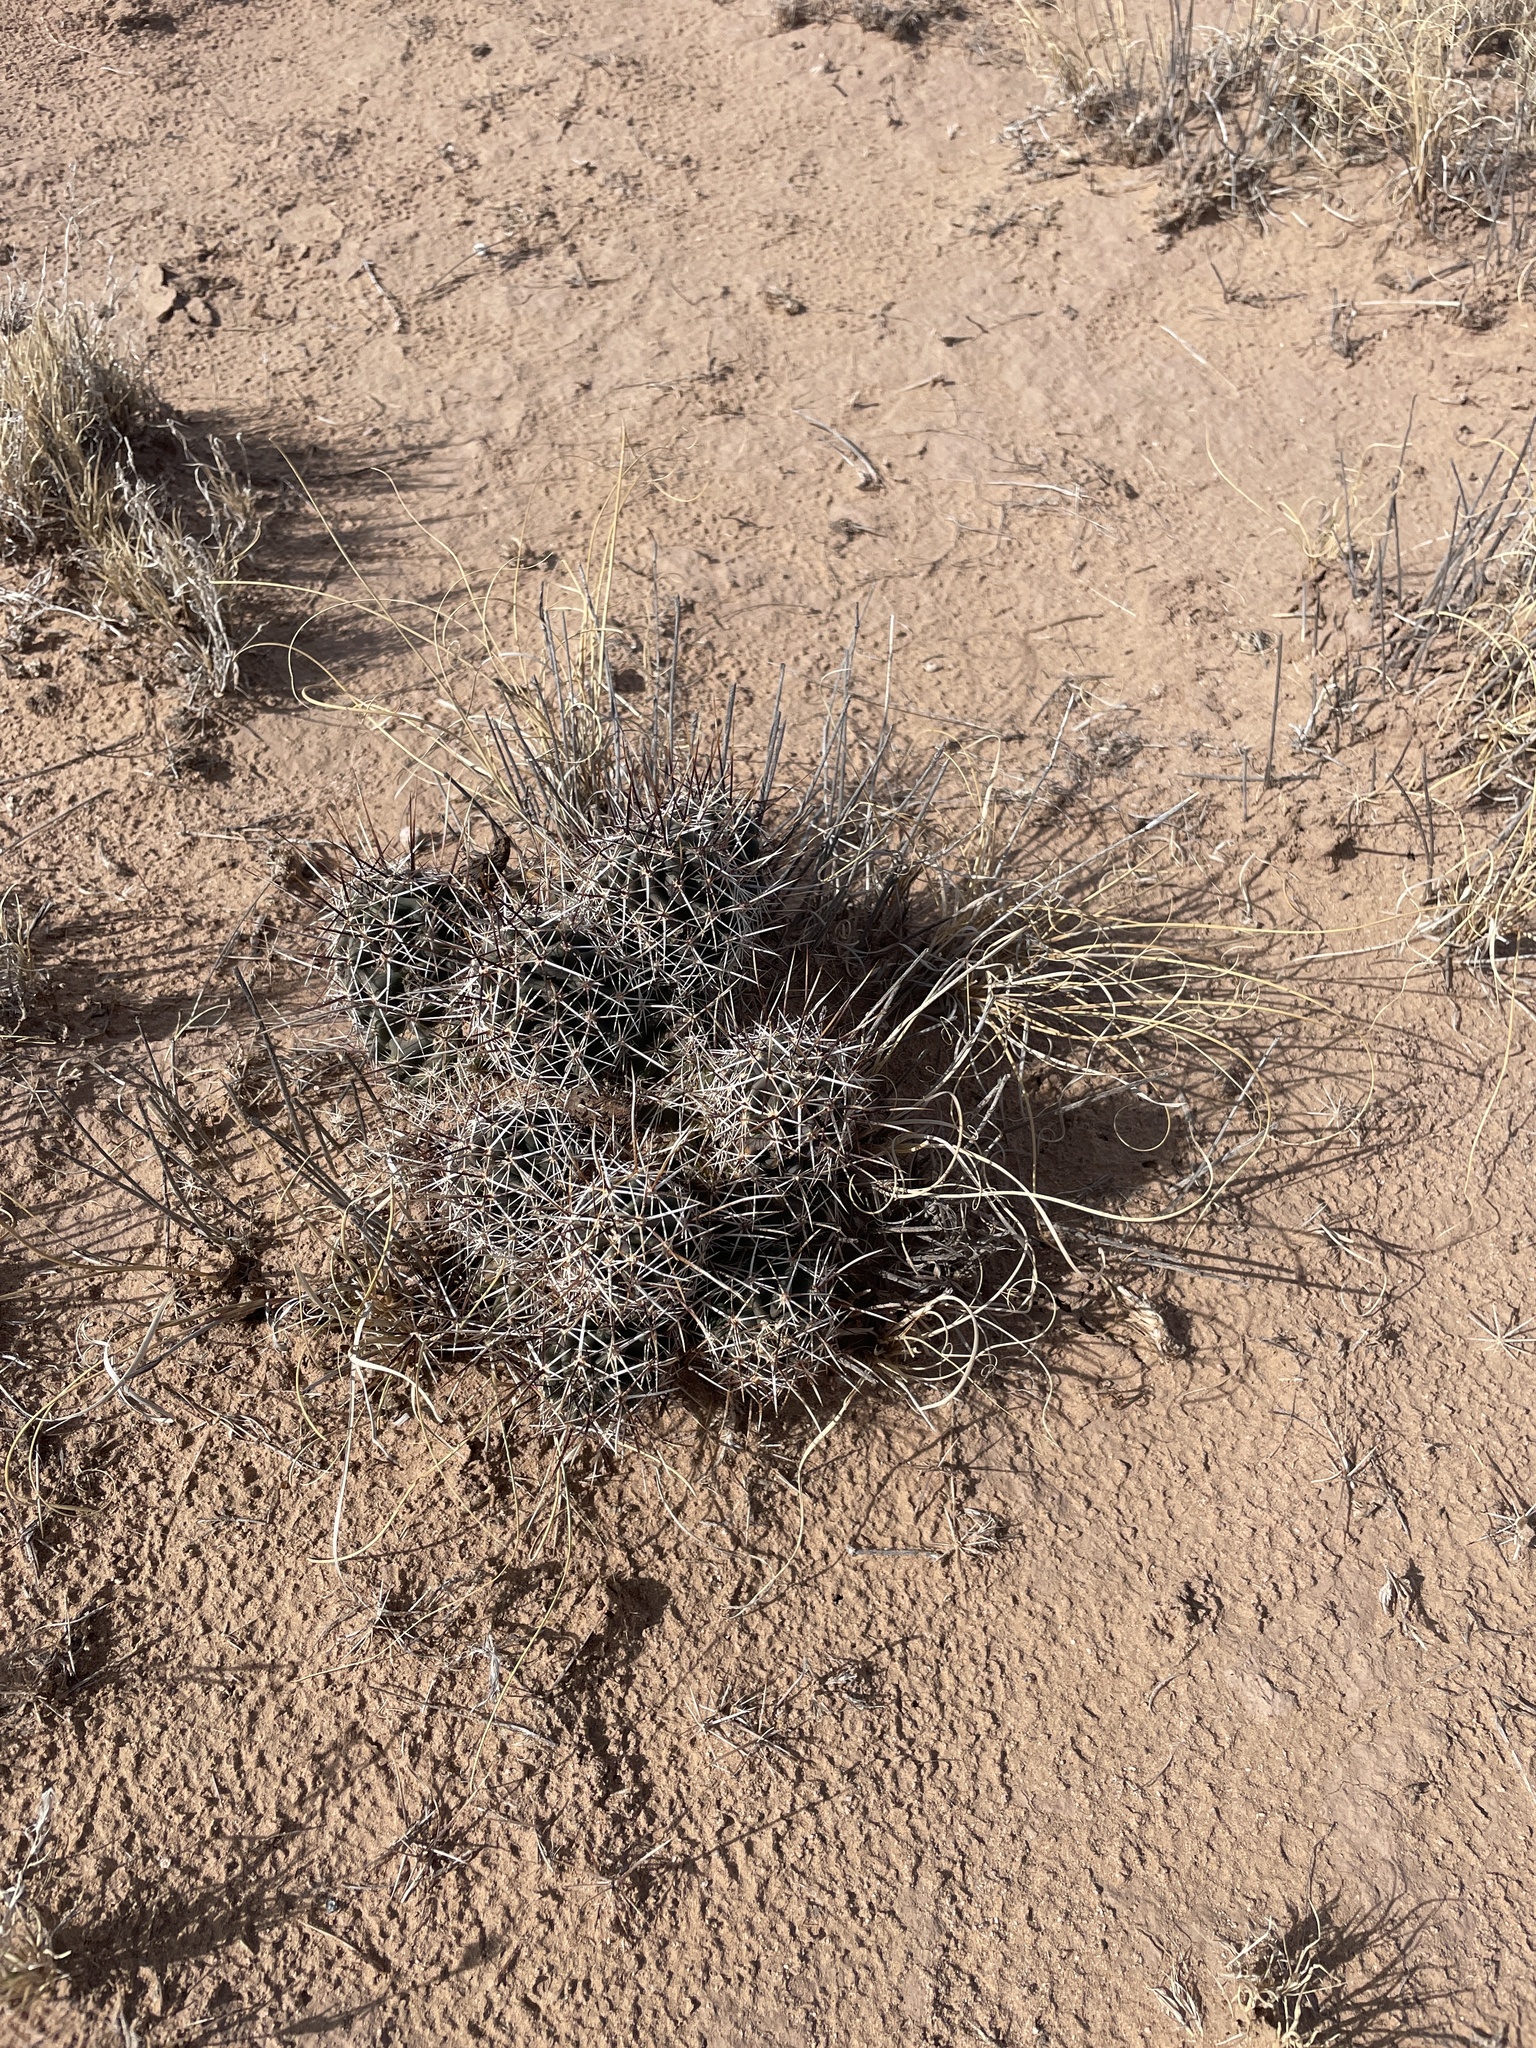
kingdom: Plantae
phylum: Tracheophyta
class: Magnoliopsida
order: Caryophyllales
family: Cactaceae
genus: Echinocereus
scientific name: Echinocereus fendleri
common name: Fendler's hedgehog cactus
